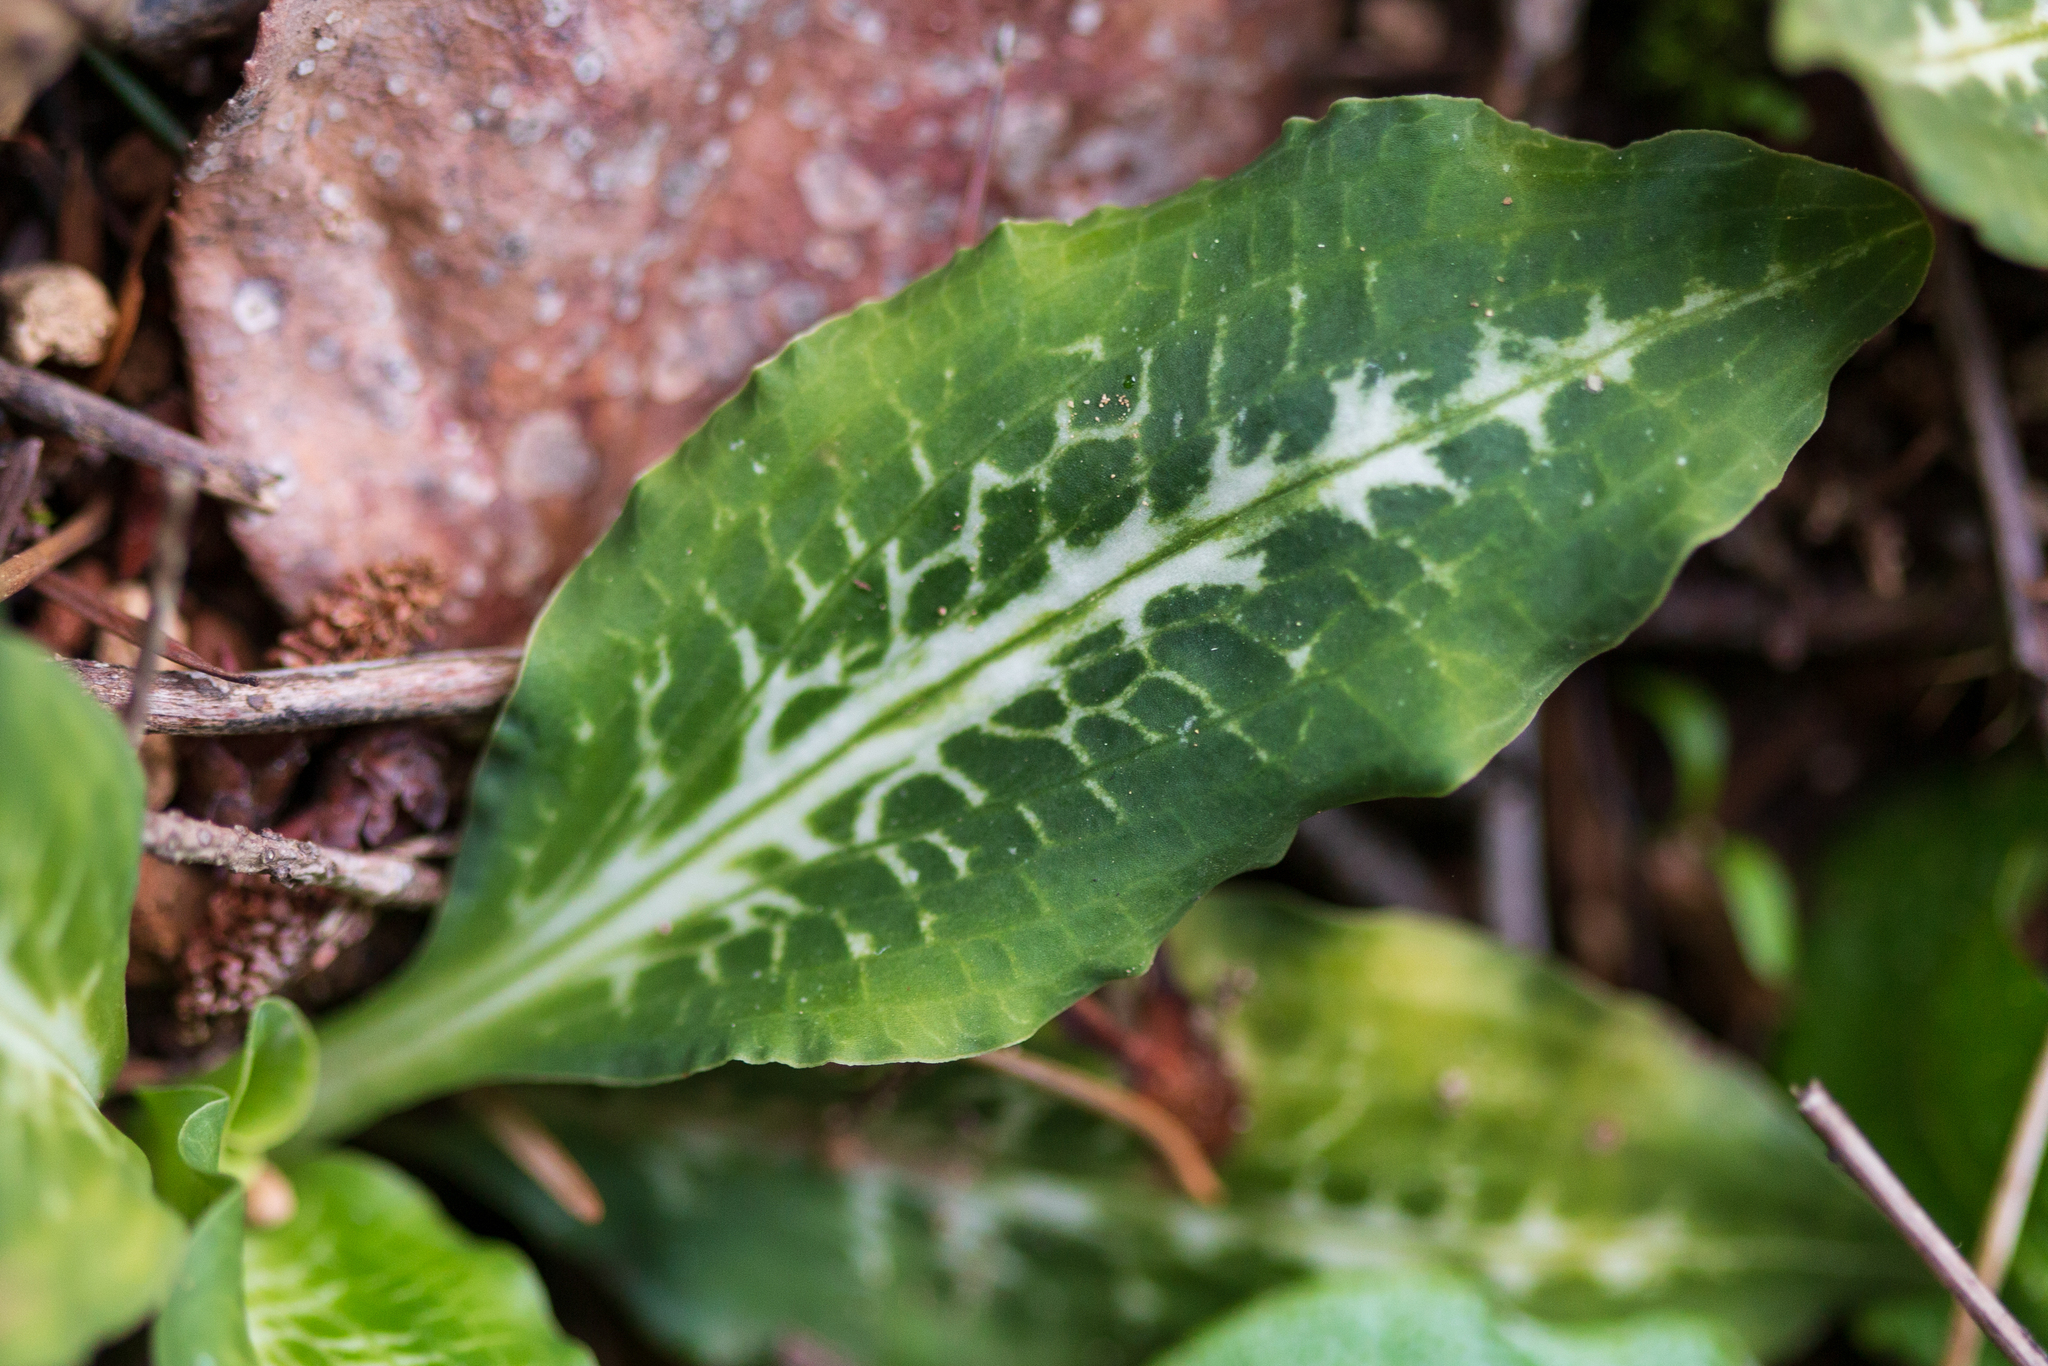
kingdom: Plantae
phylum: Tracheophyta
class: Liliopsida
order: Asparagales
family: Orchidaceae
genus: Goodyera
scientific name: Goodyera oblongifolia
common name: Giant rattlesnake-plantain
